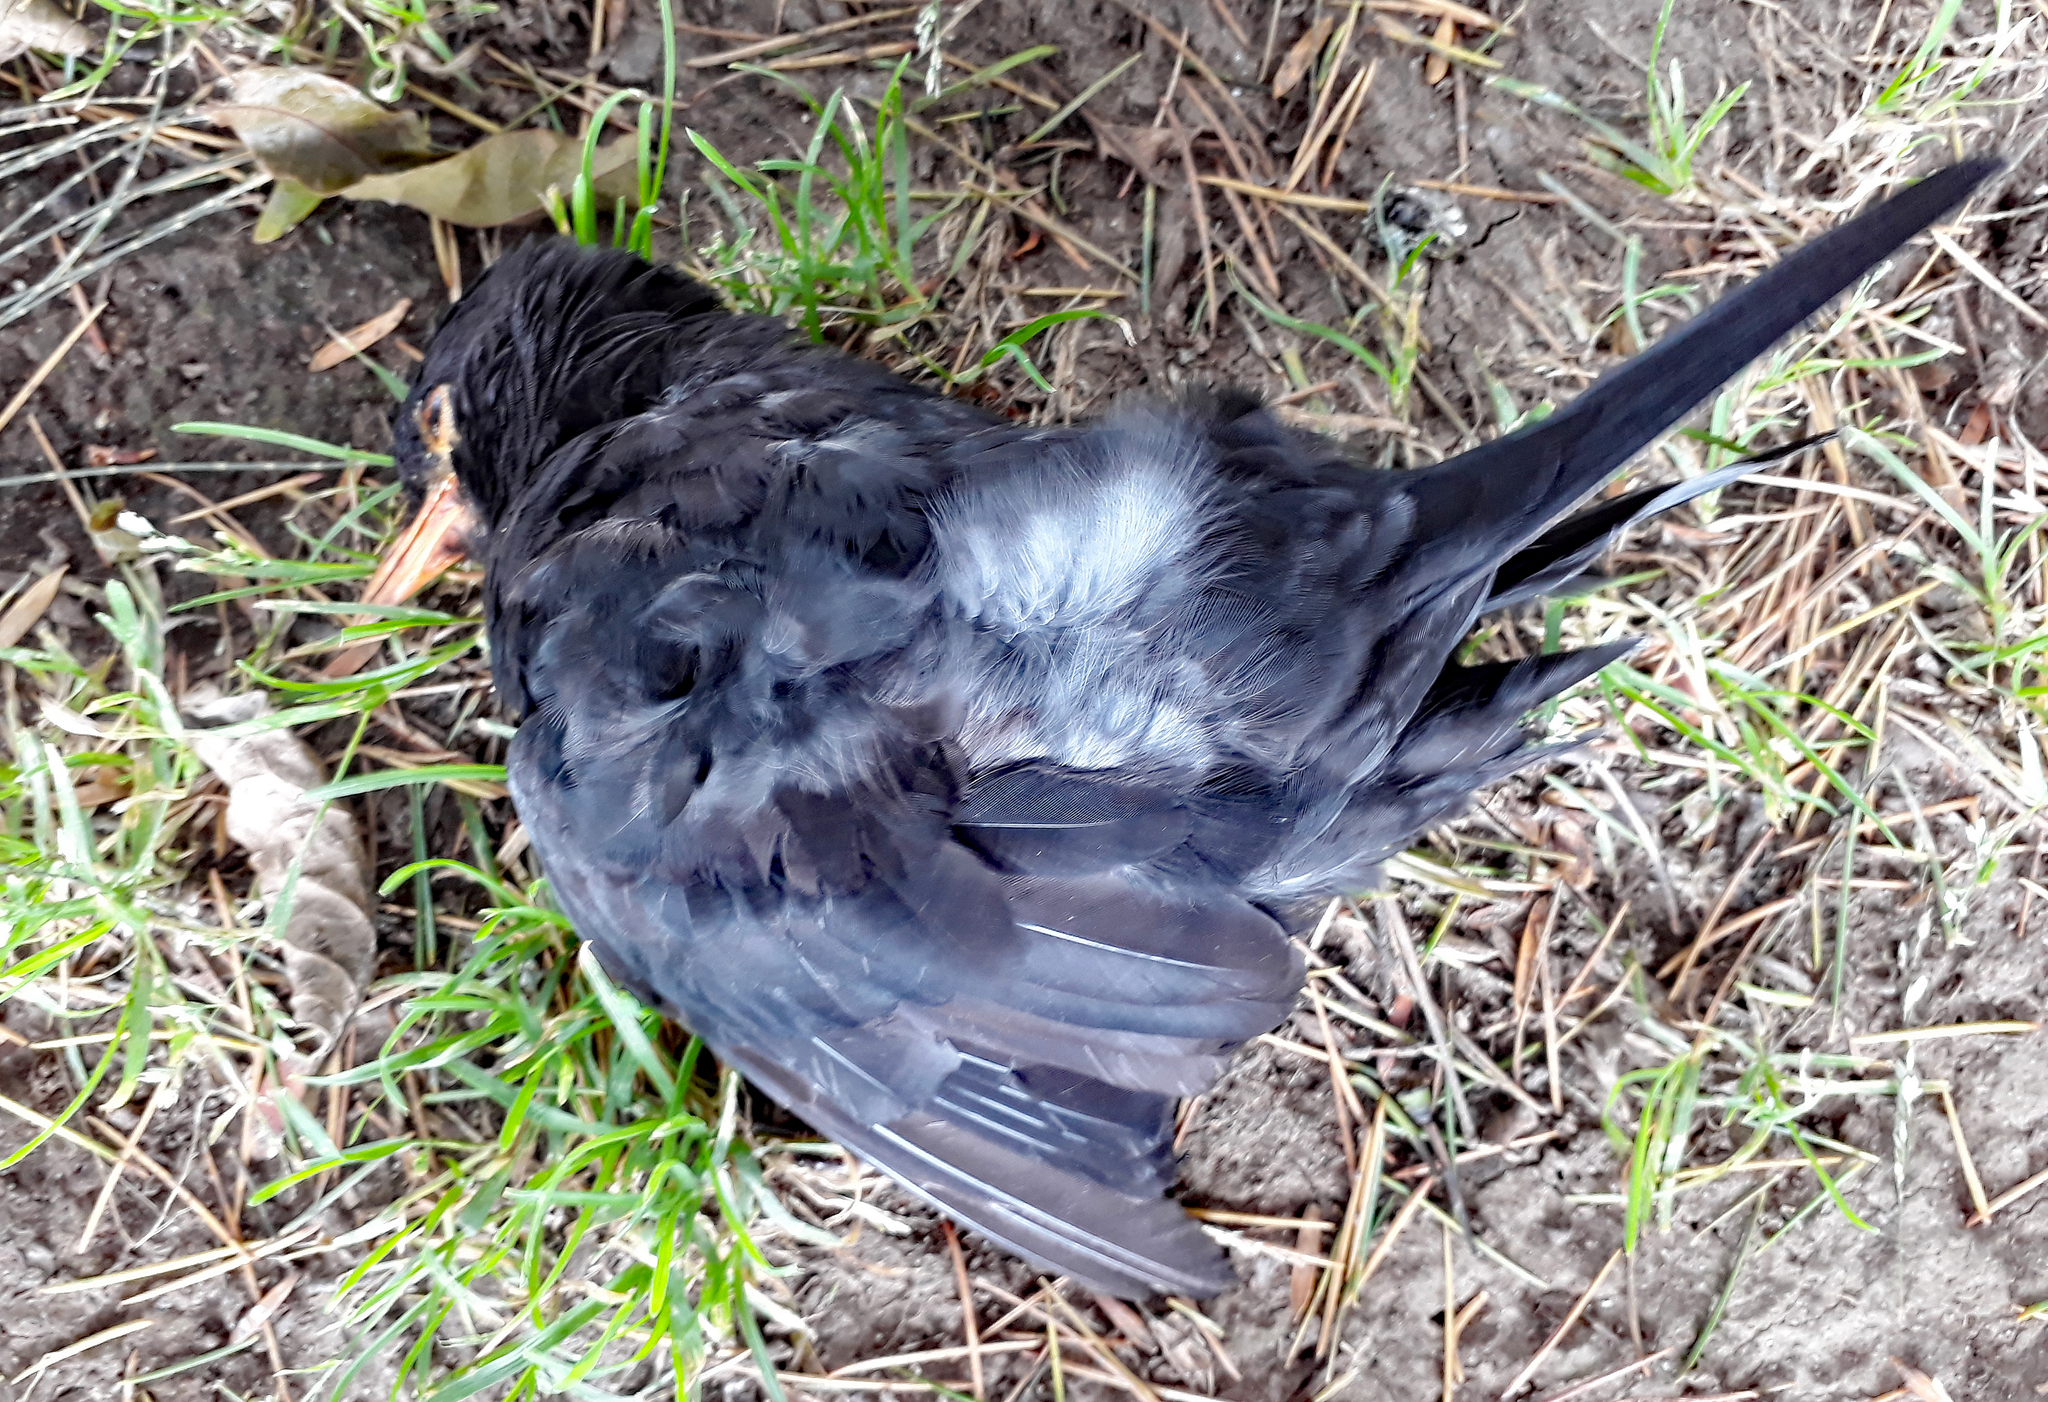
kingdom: Animalia
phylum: Chordata
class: Aves
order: Passeriformes
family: Turdidae
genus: Turdus
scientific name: Turdus merula
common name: Common blackbird
